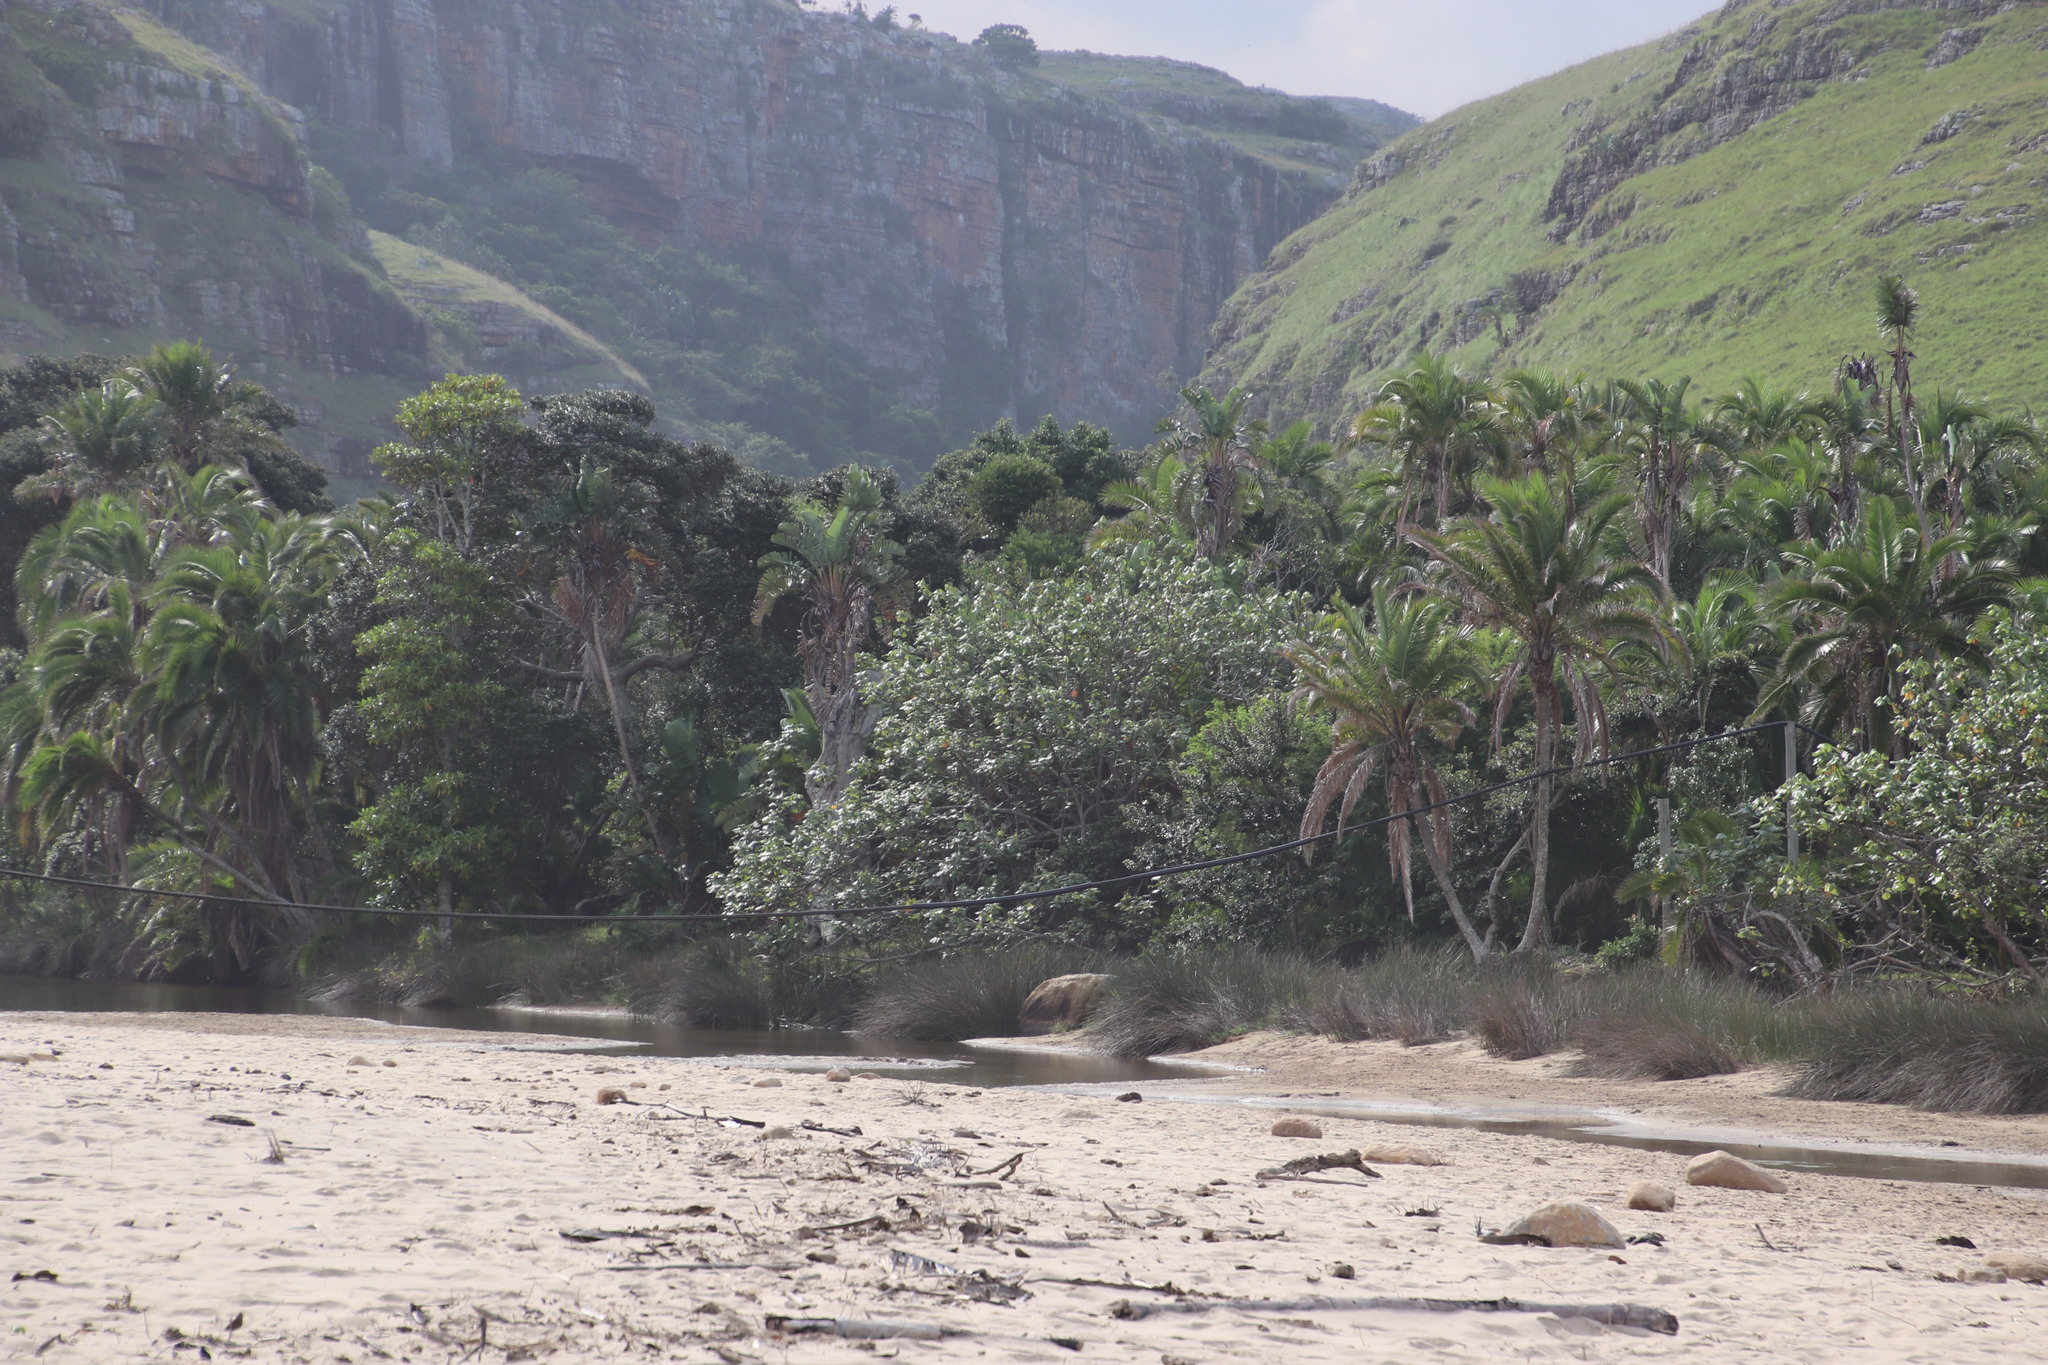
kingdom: Plantae
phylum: Tracheophyta
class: Liliopsida
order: Arecales
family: Arecaceae
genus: Phoenix
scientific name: Phoenix reclinata
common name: Senegal date palm
